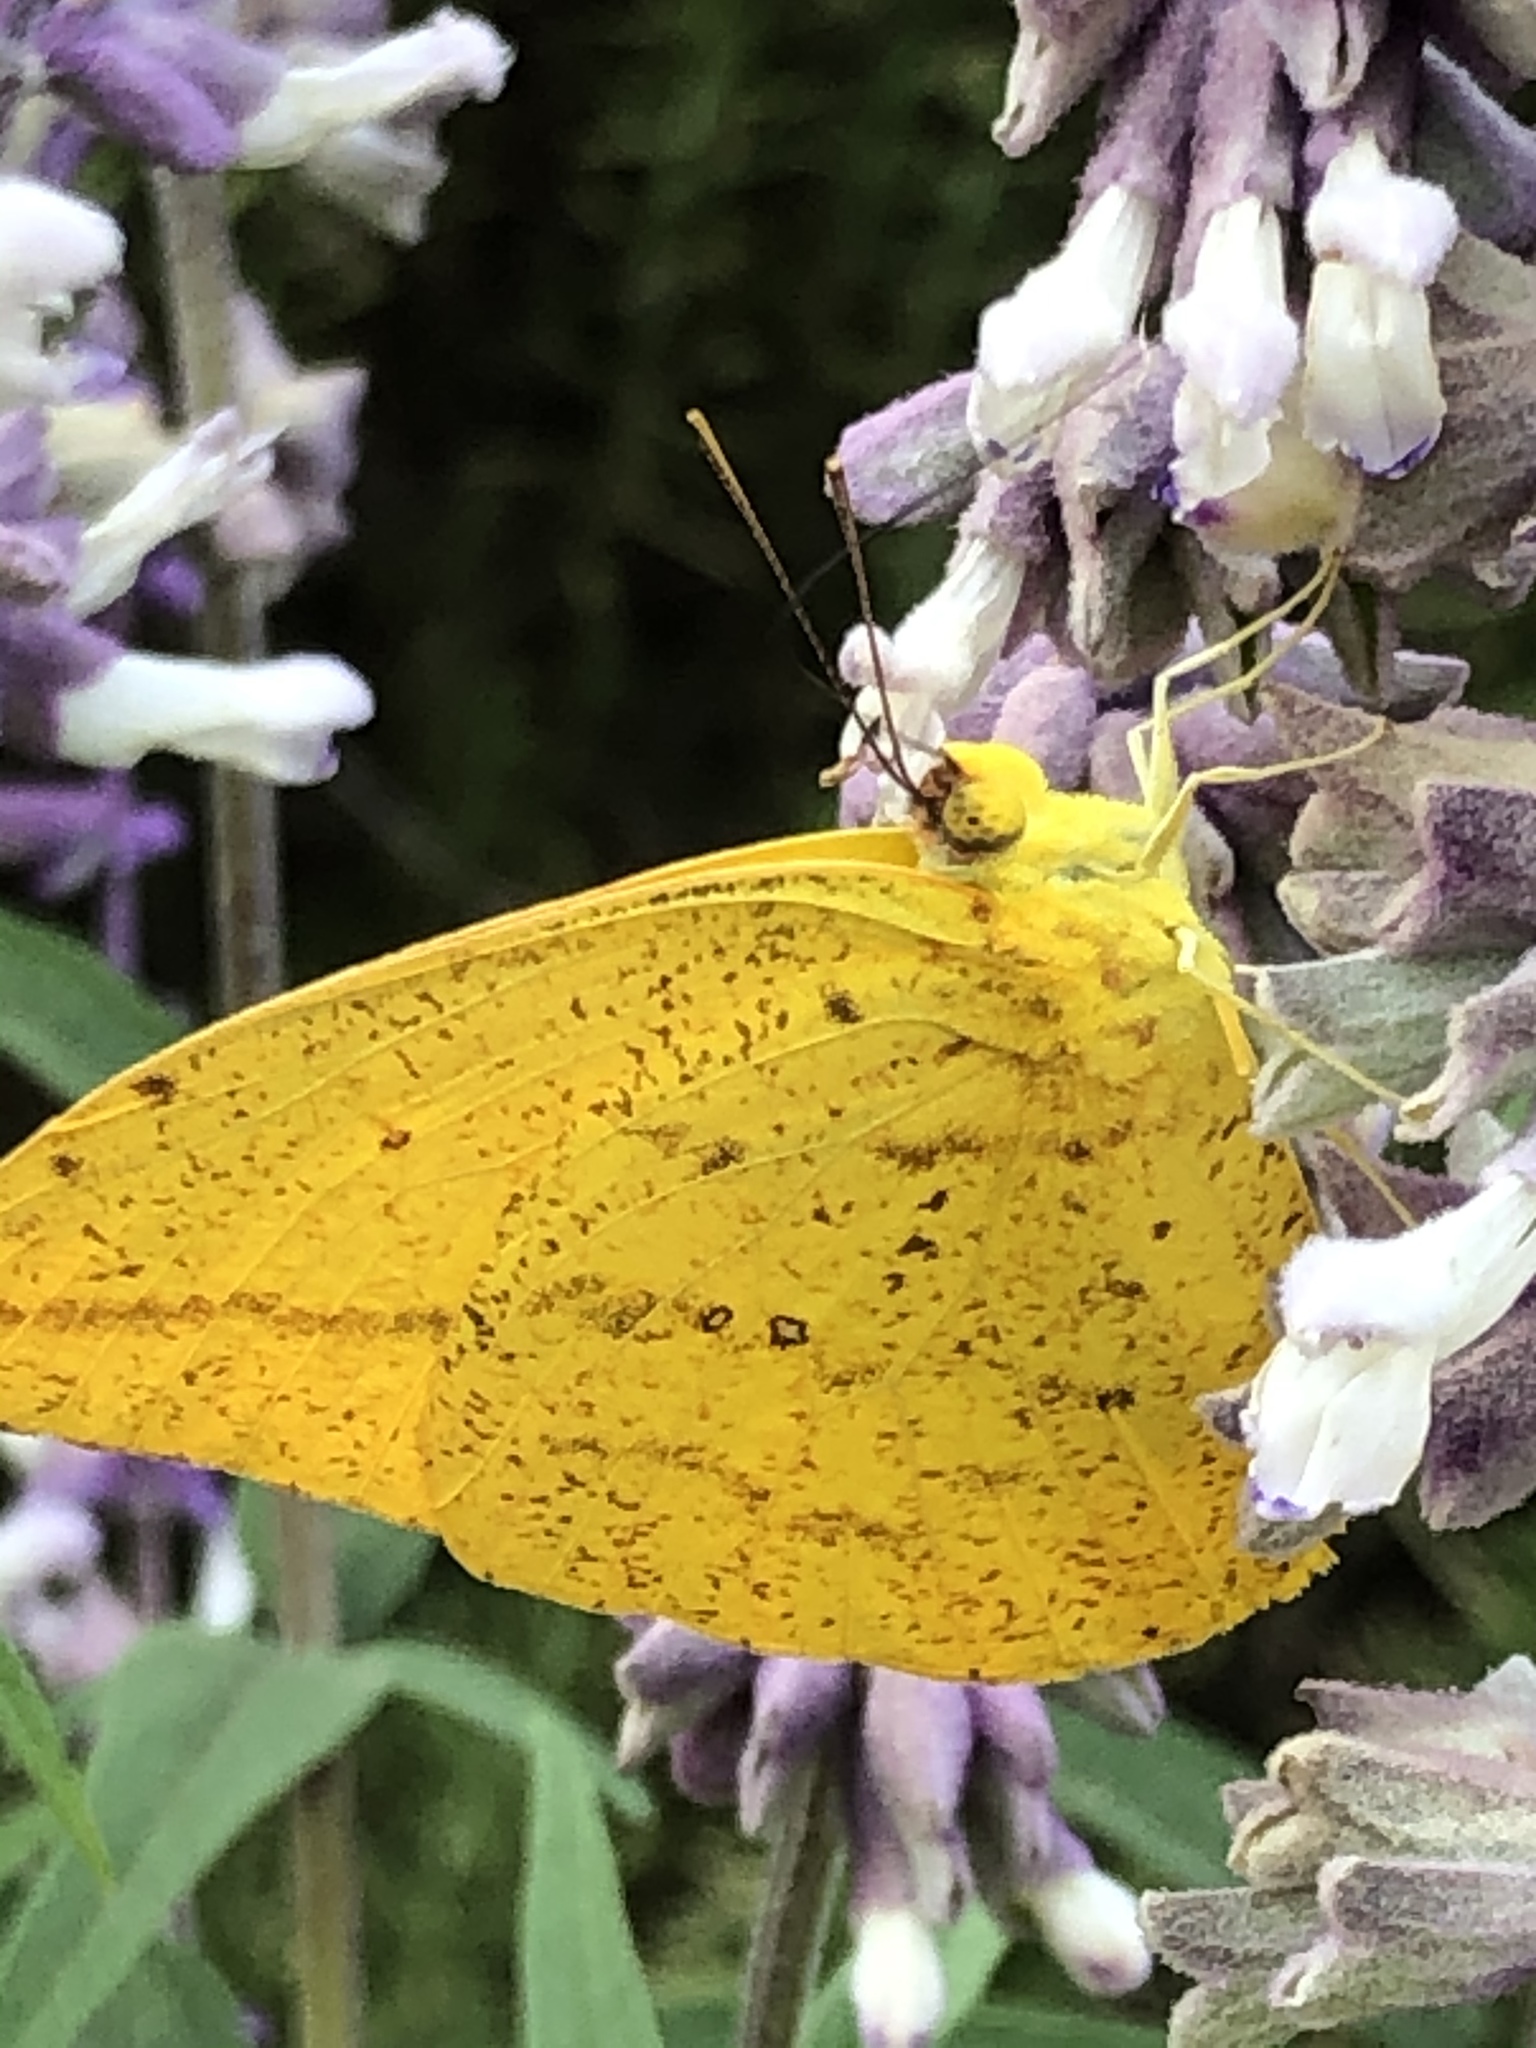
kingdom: Animalia
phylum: Arthropoda
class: Insecta
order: Lepidoptera
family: Pieridae
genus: Phoebis
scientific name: Phoebis agarithe
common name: Large orange sulphur
